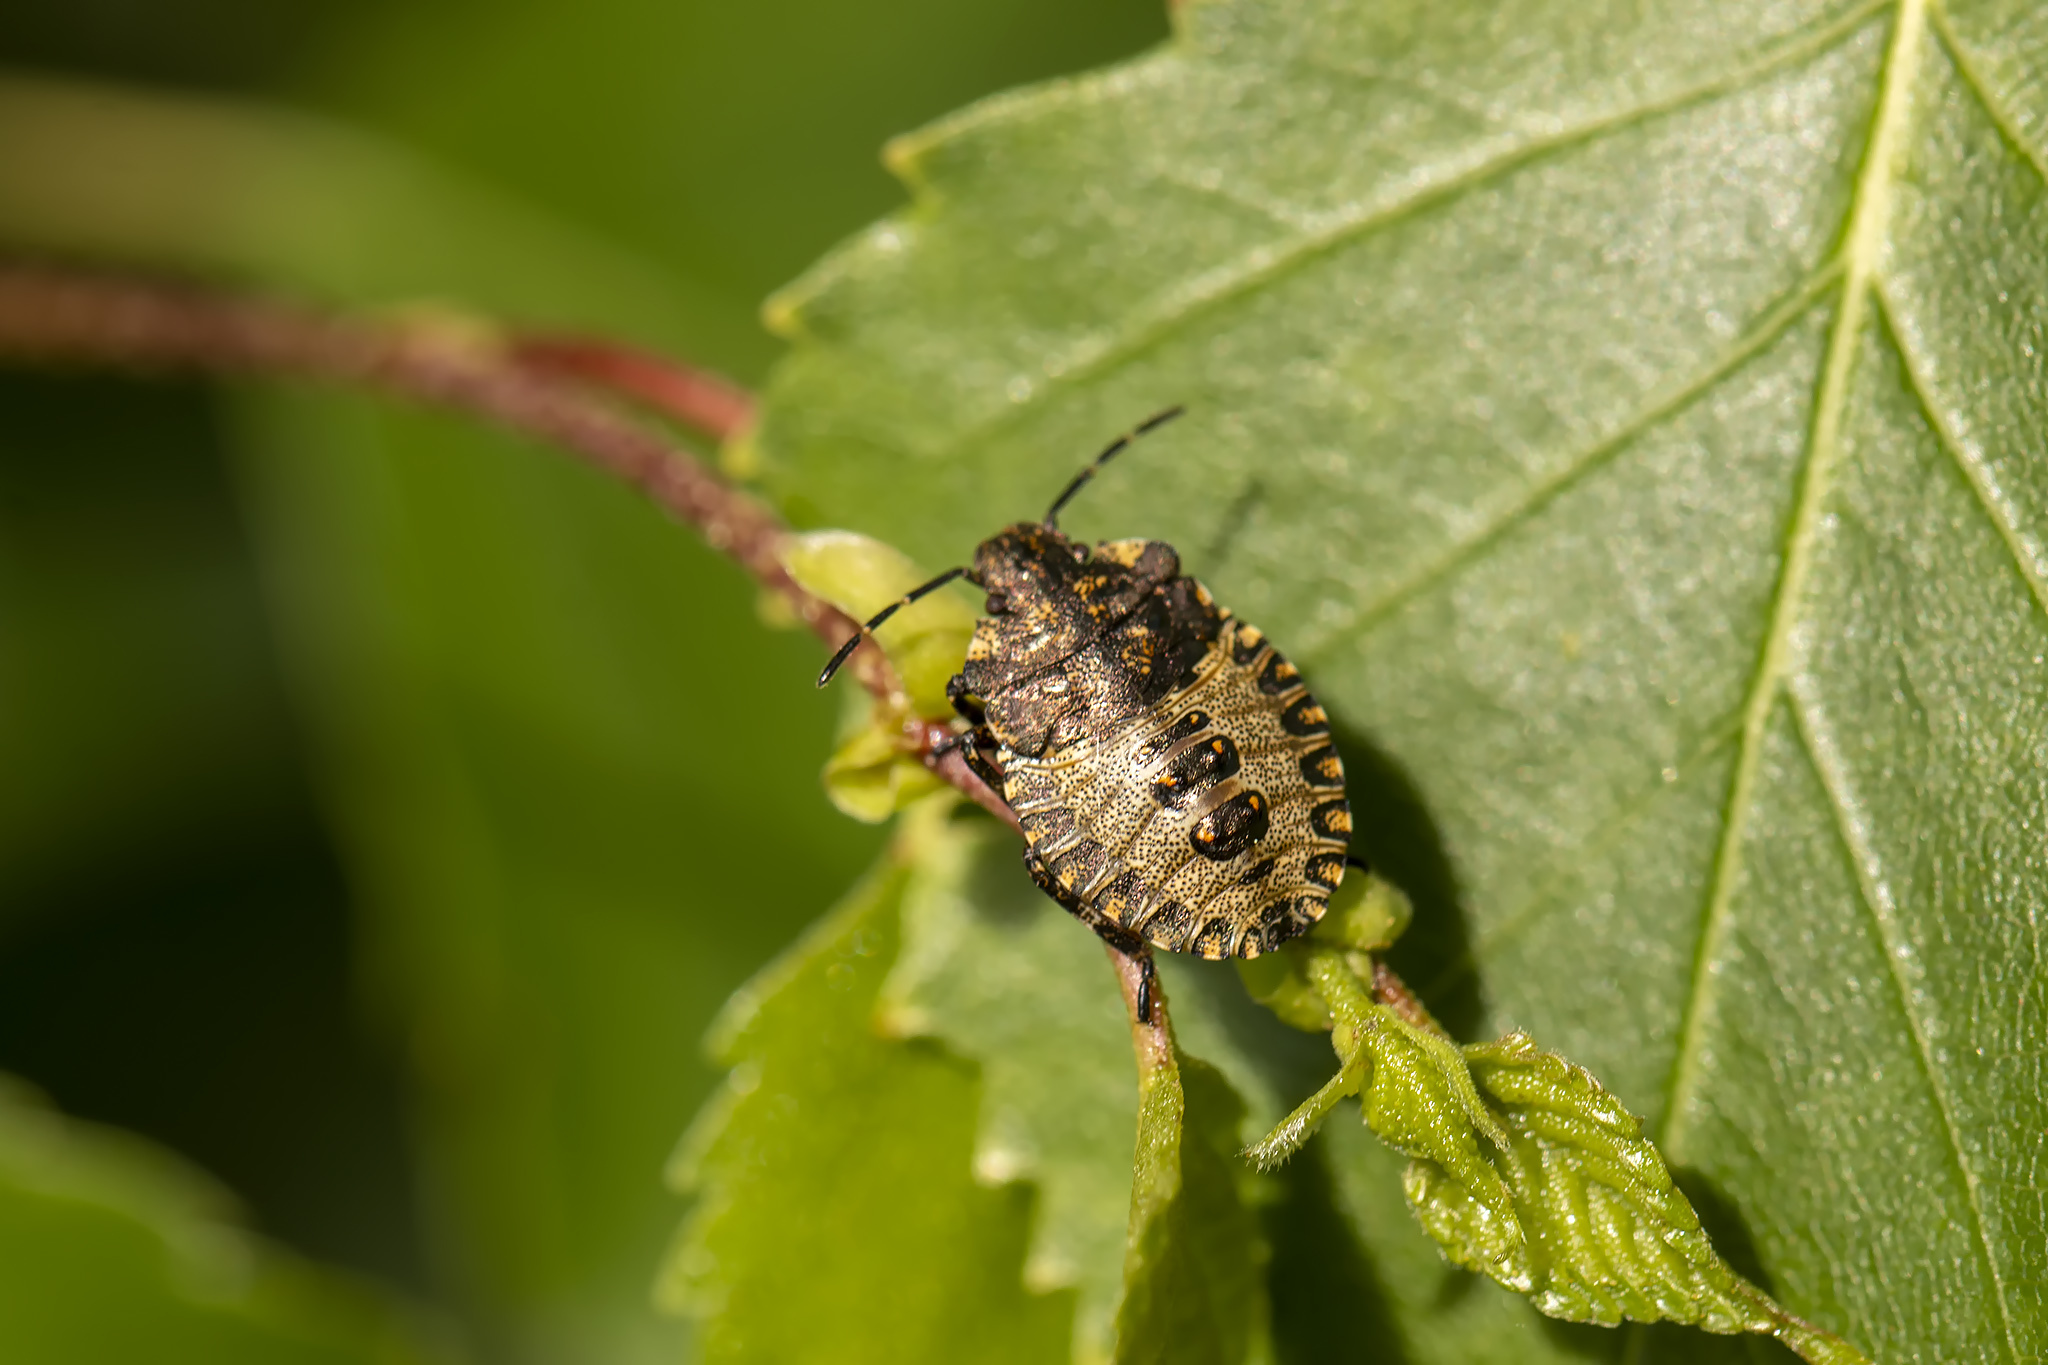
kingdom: Animalia
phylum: Arthropoda
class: Insecta
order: Hemiptera
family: Pentatomidae
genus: Pentatoma
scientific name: Pentatoma rufipes
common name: Forest bug
